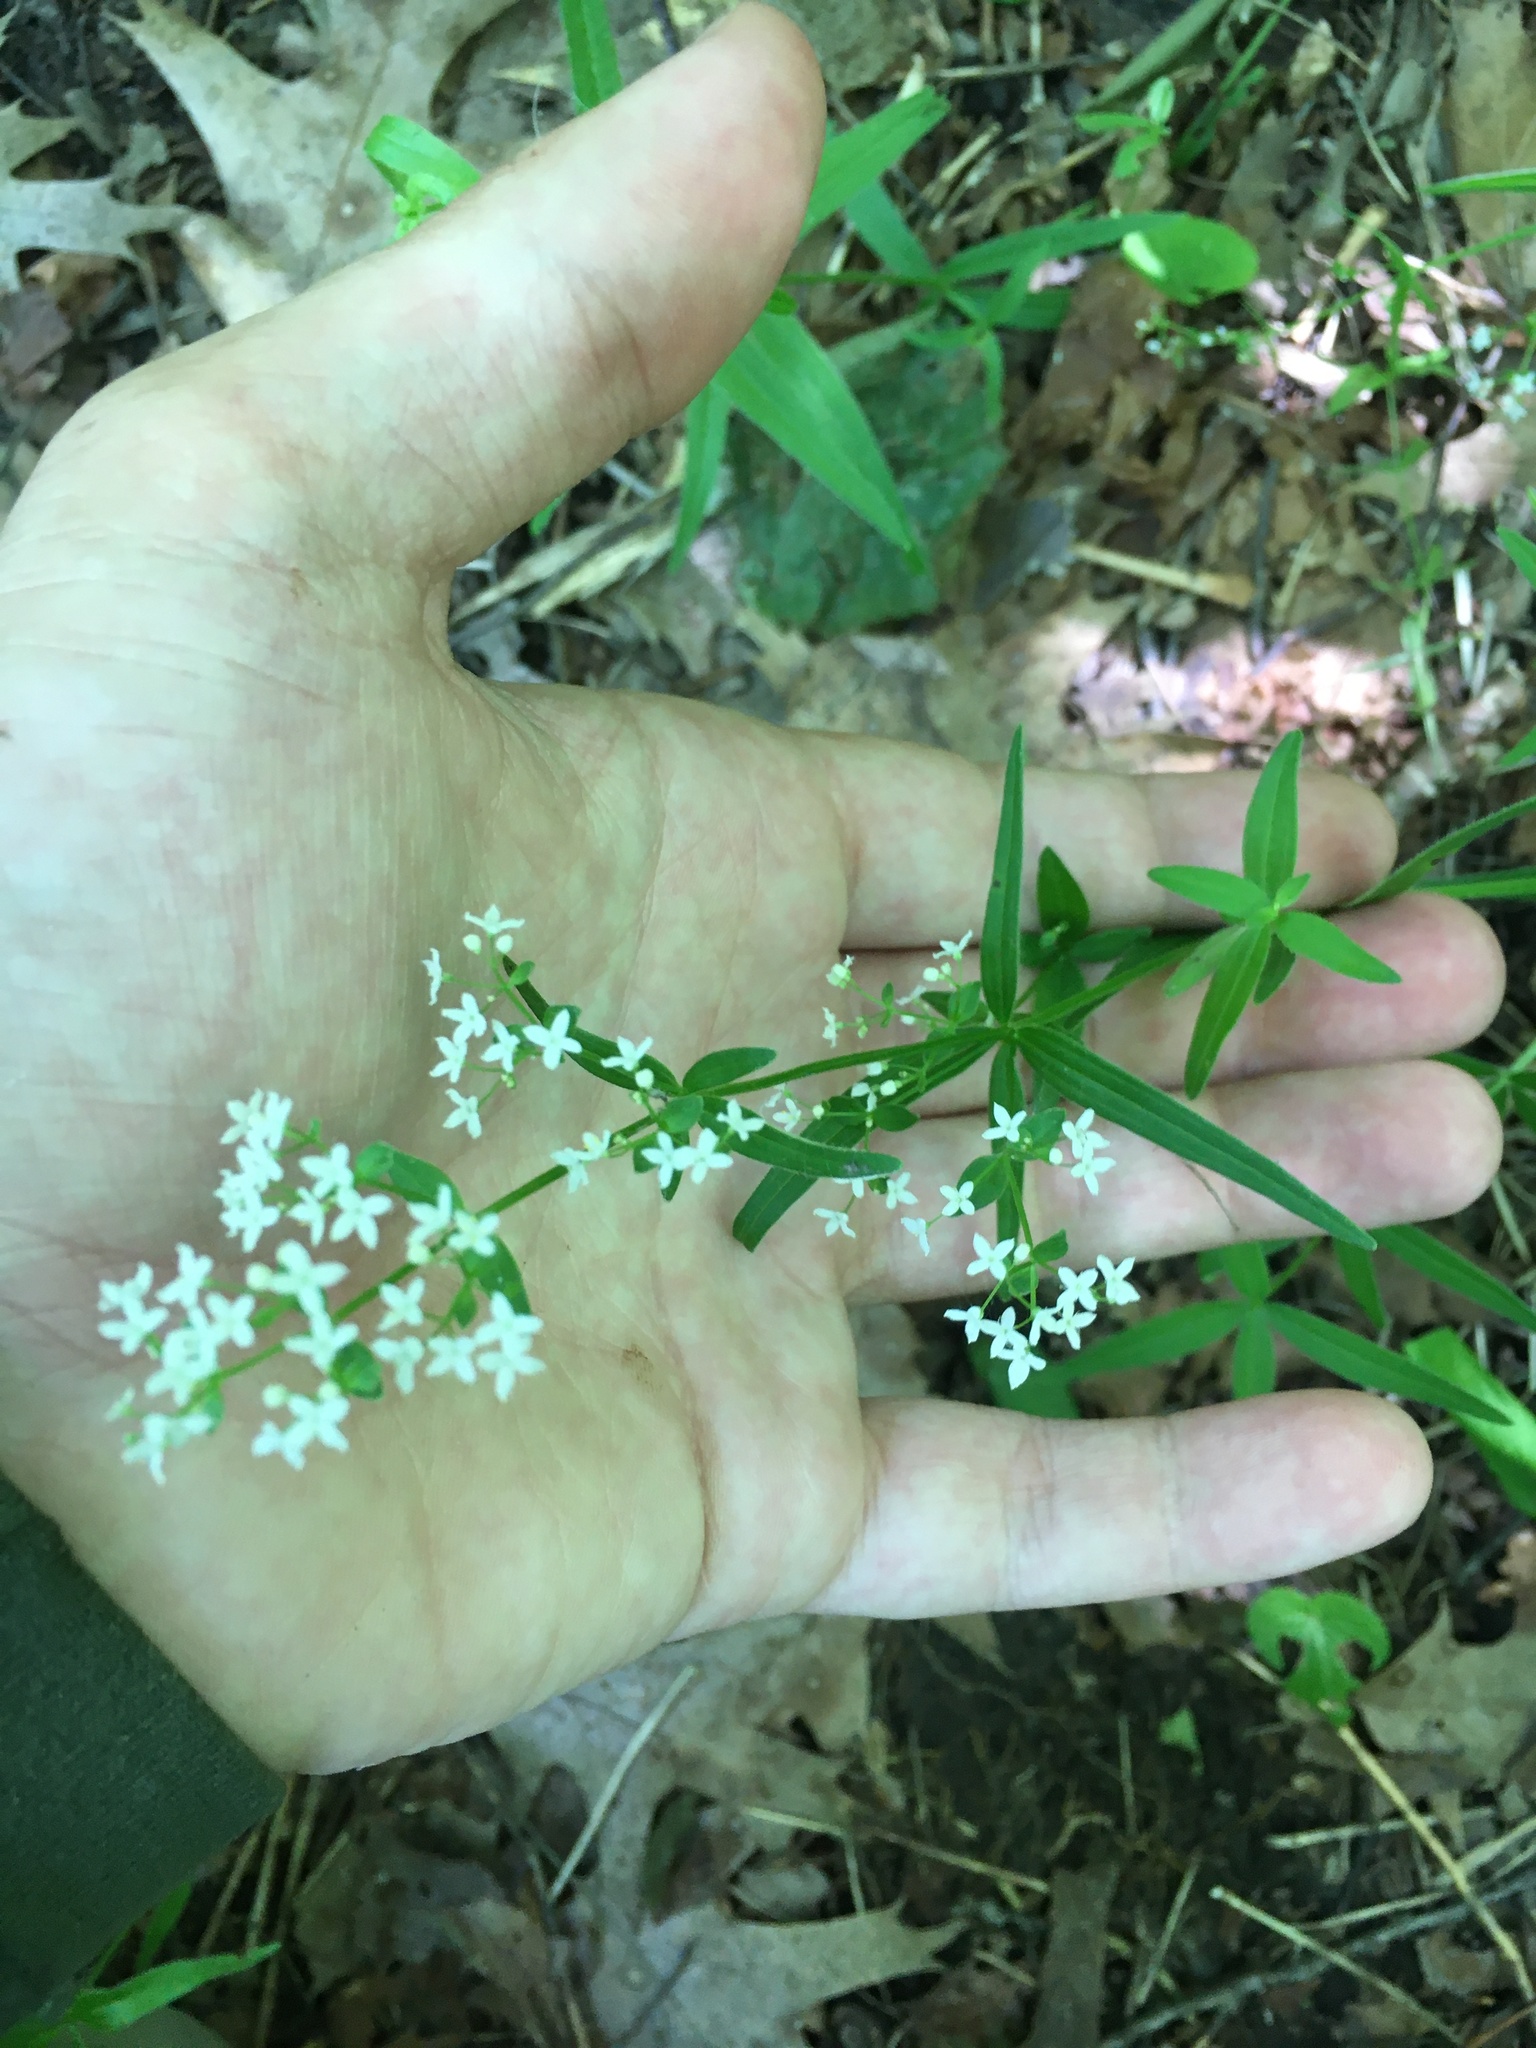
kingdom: Plantae
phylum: Tracheophyta
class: Magnoliopsida
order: Gentianales
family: Rubiaceae
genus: Galium
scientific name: Galium boreale
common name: Northern bedstraw
